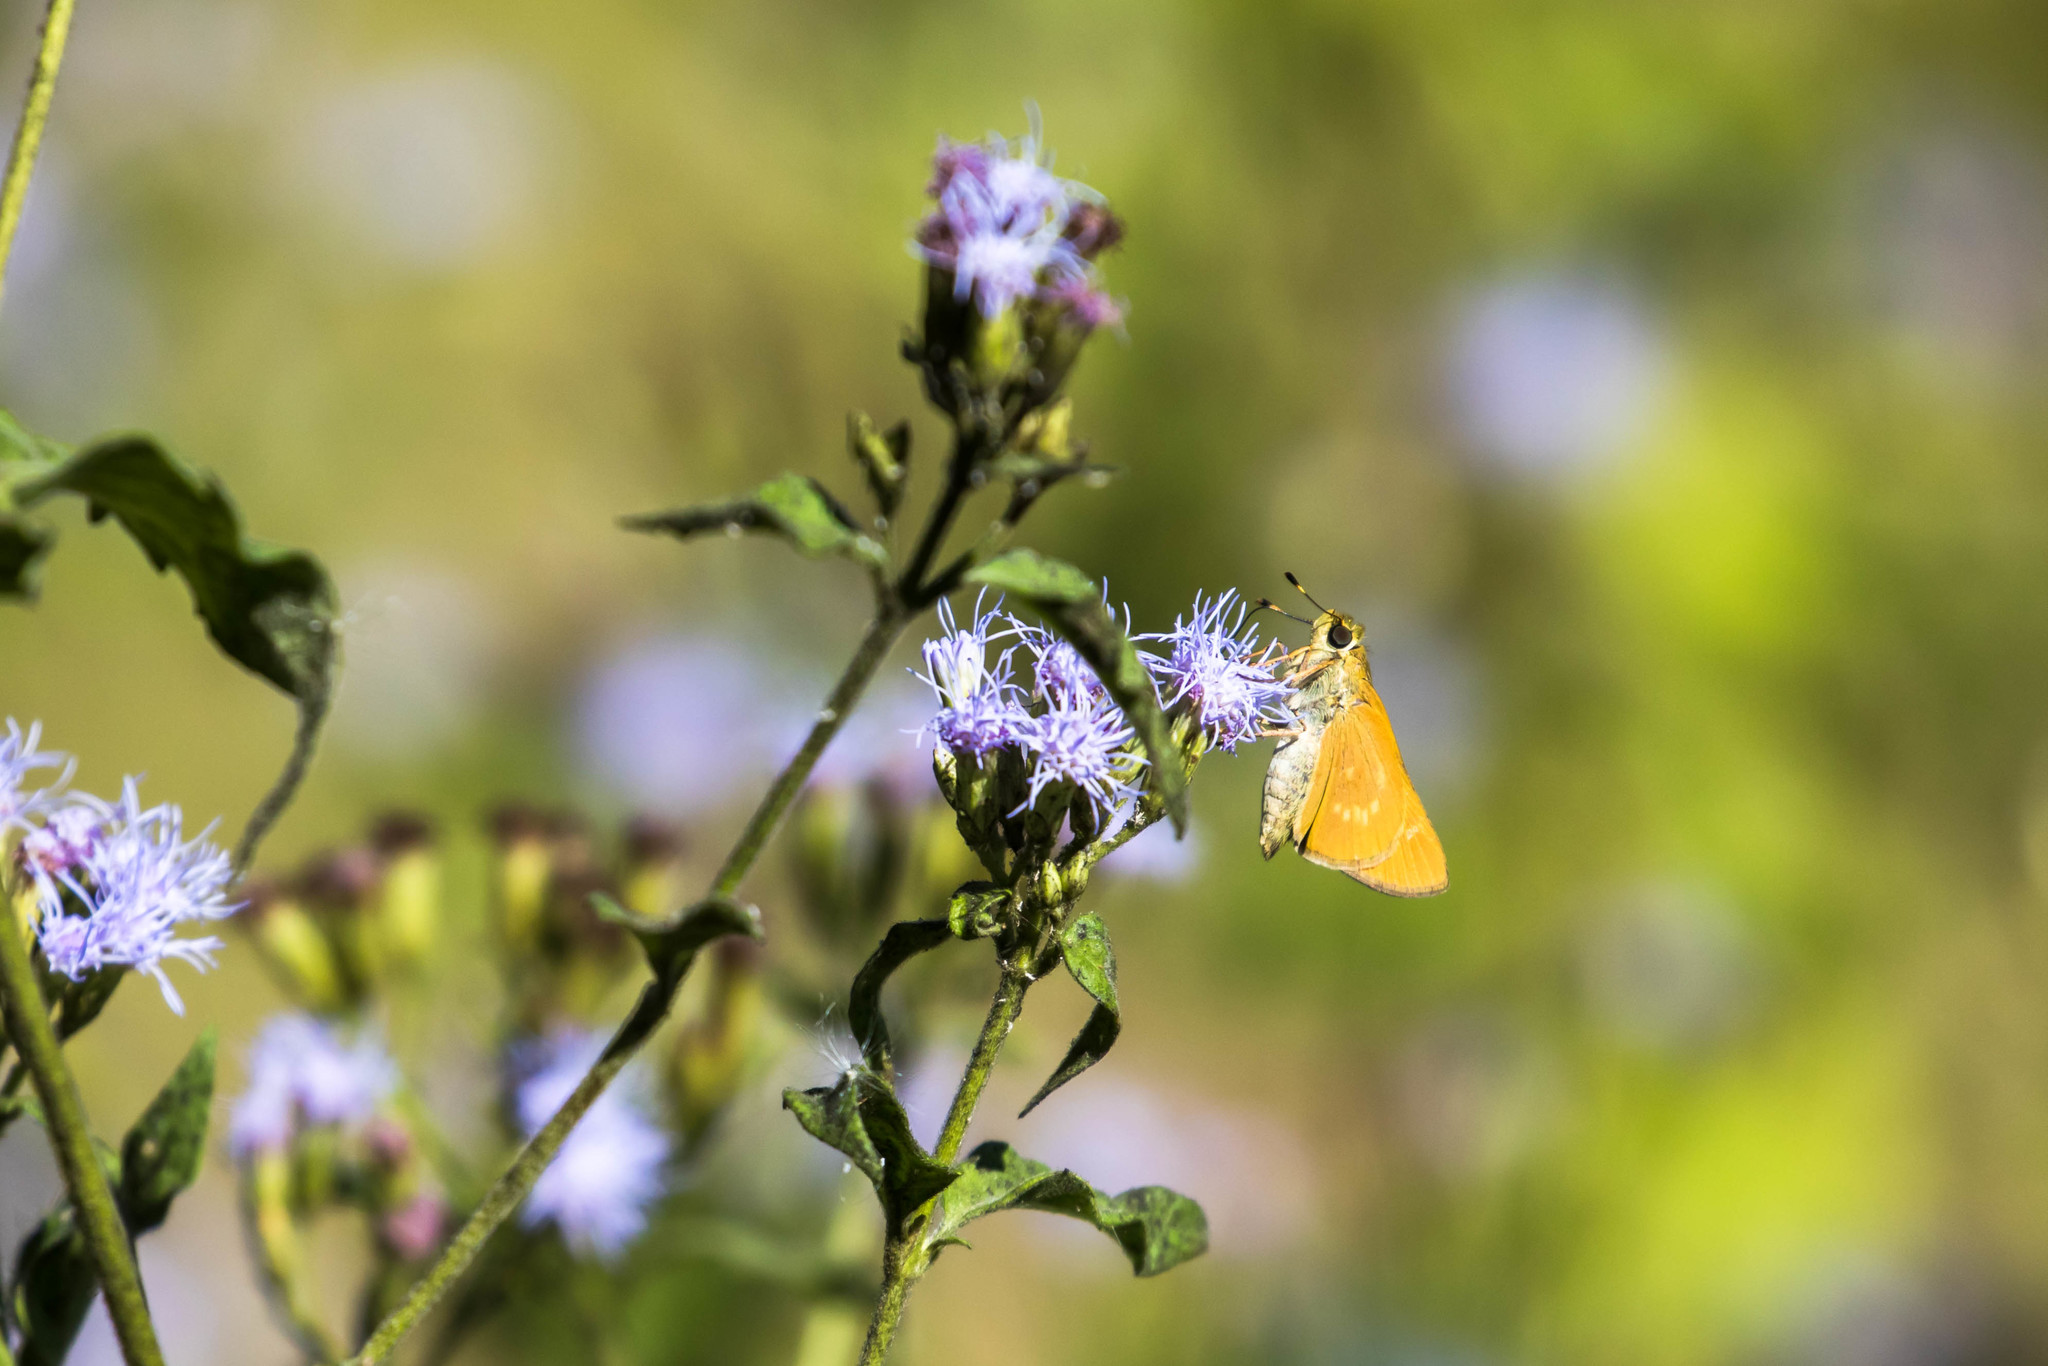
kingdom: Animalia
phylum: Arthropoda
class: Insecta
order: Lepidoptera
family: Hesperiidae
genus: Mellana
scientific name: Mellana eulogius
